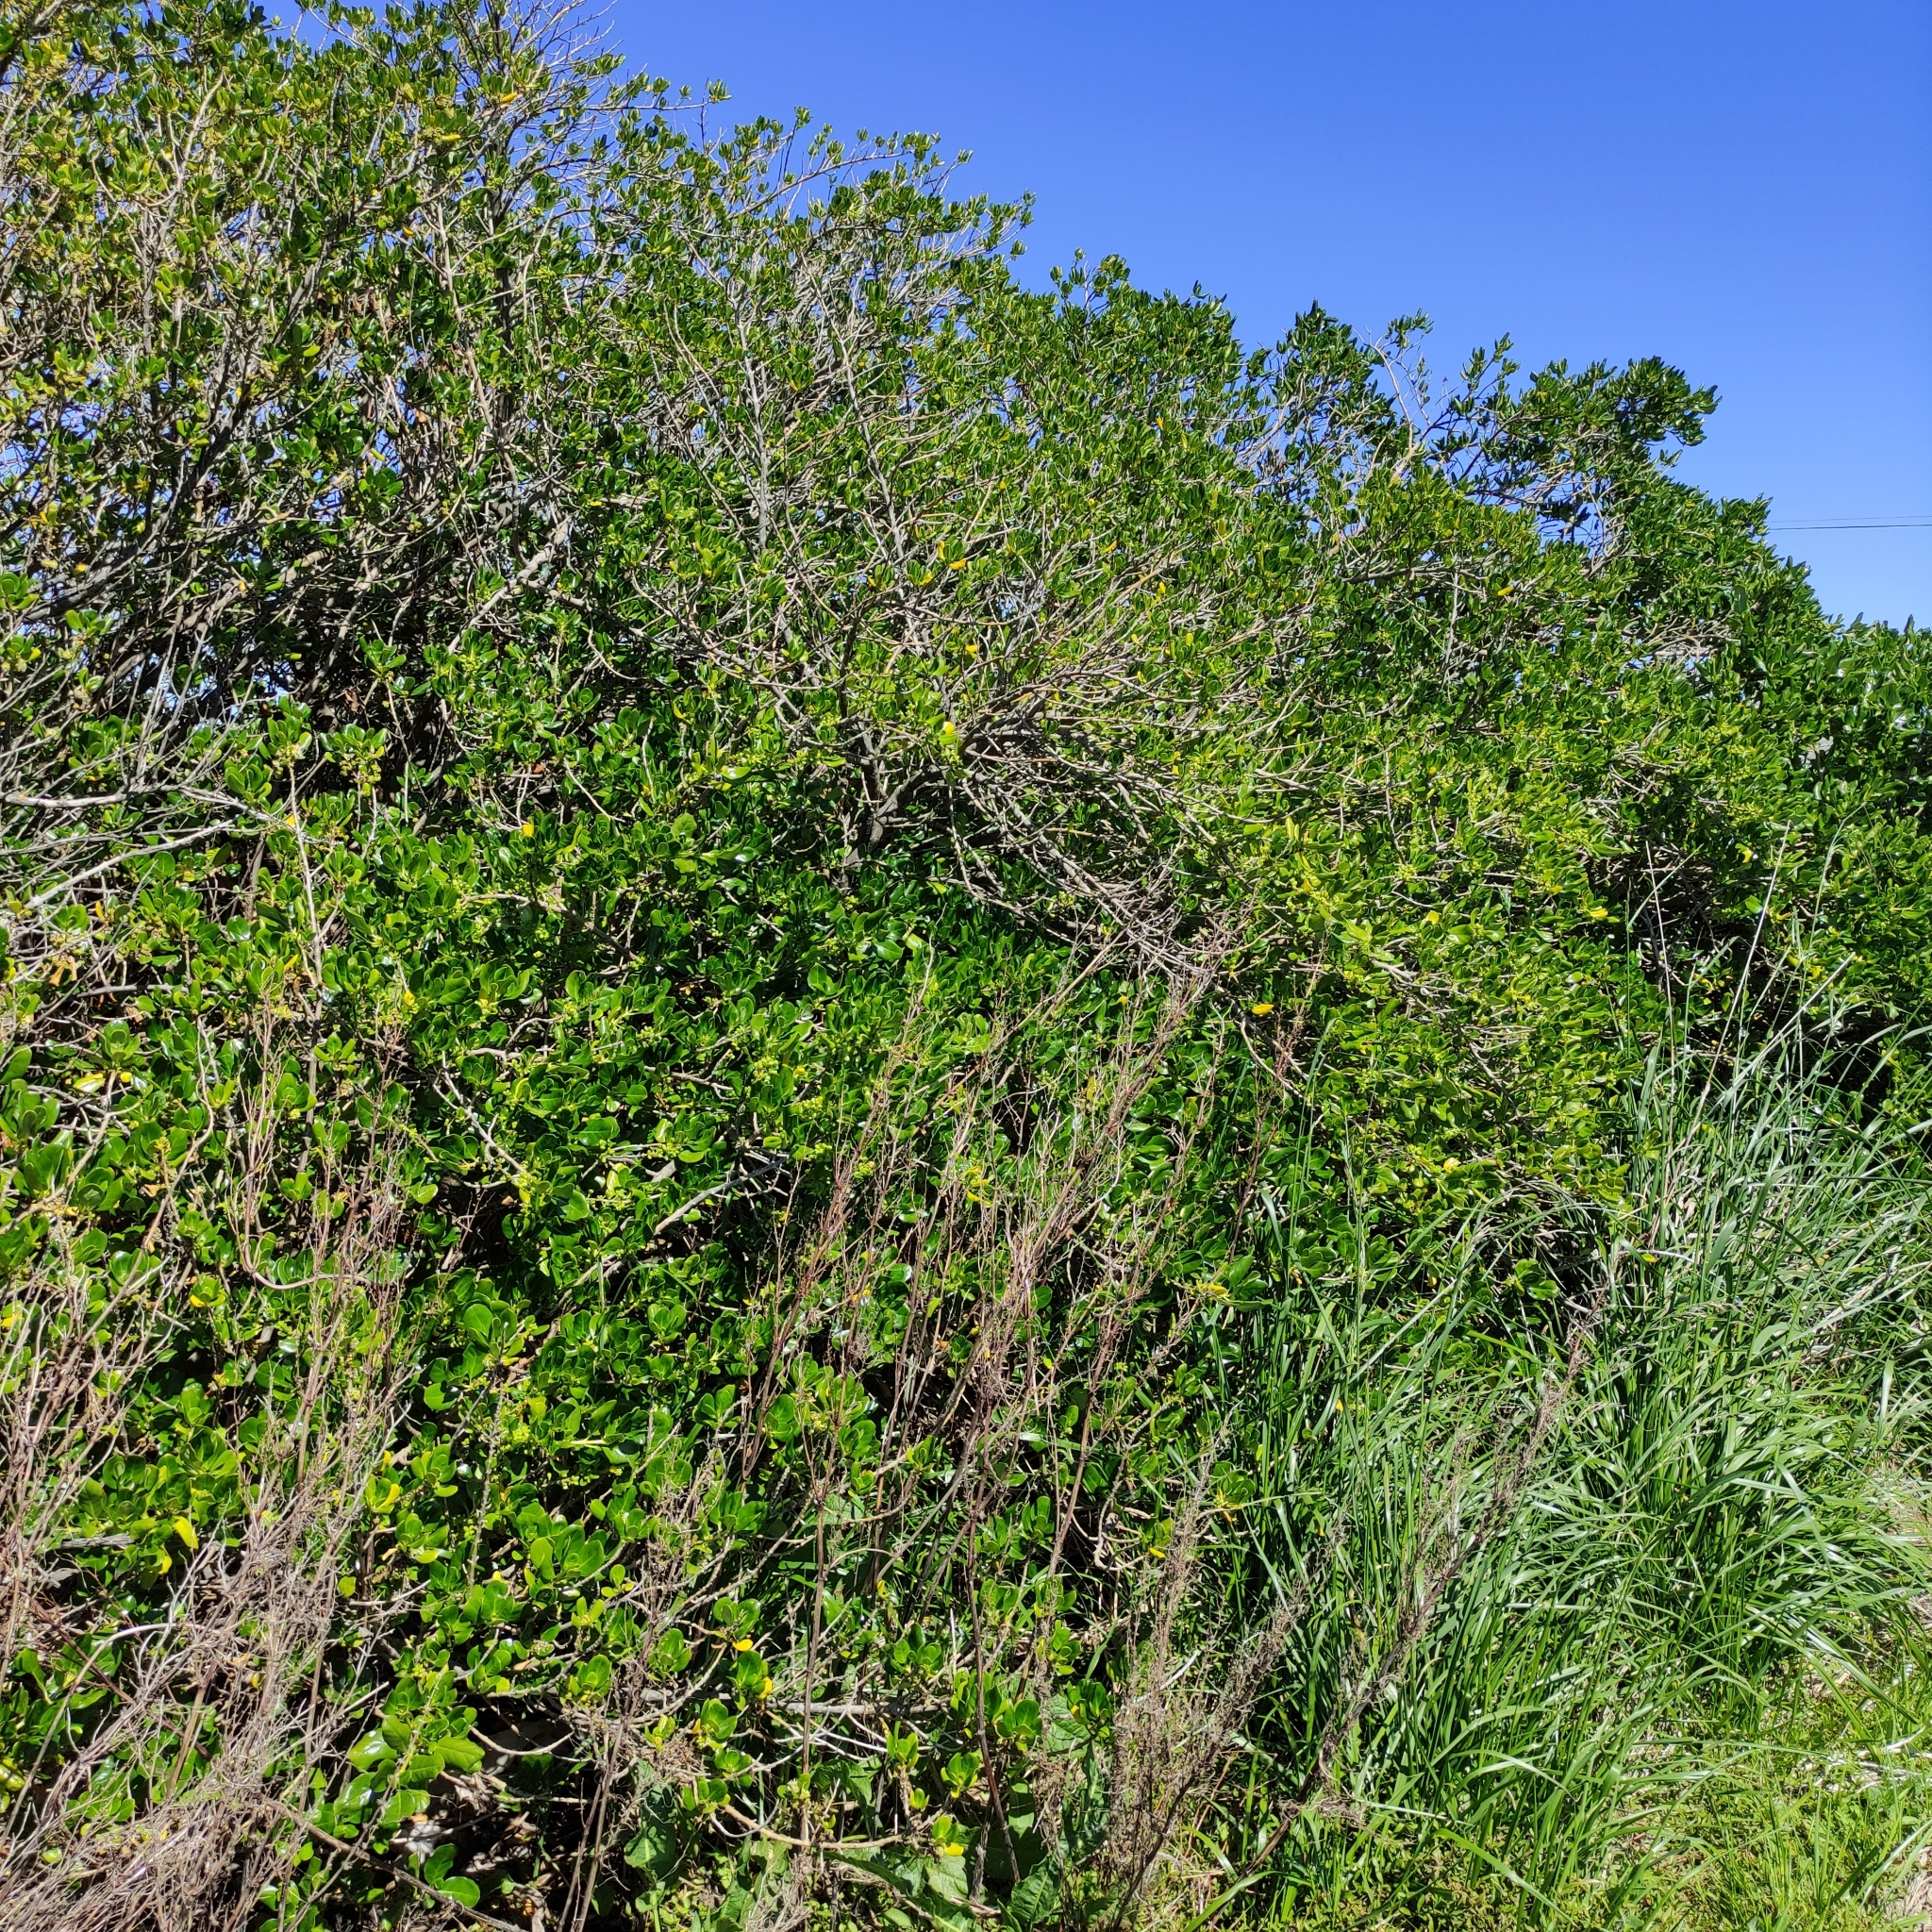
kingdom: Plantae
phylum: Tracheophyta
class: Magnoliopsida
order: Gentianales
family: Rubiaceae
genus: Coprosma
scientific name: Coprosma repens
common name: Tree bedstraw
